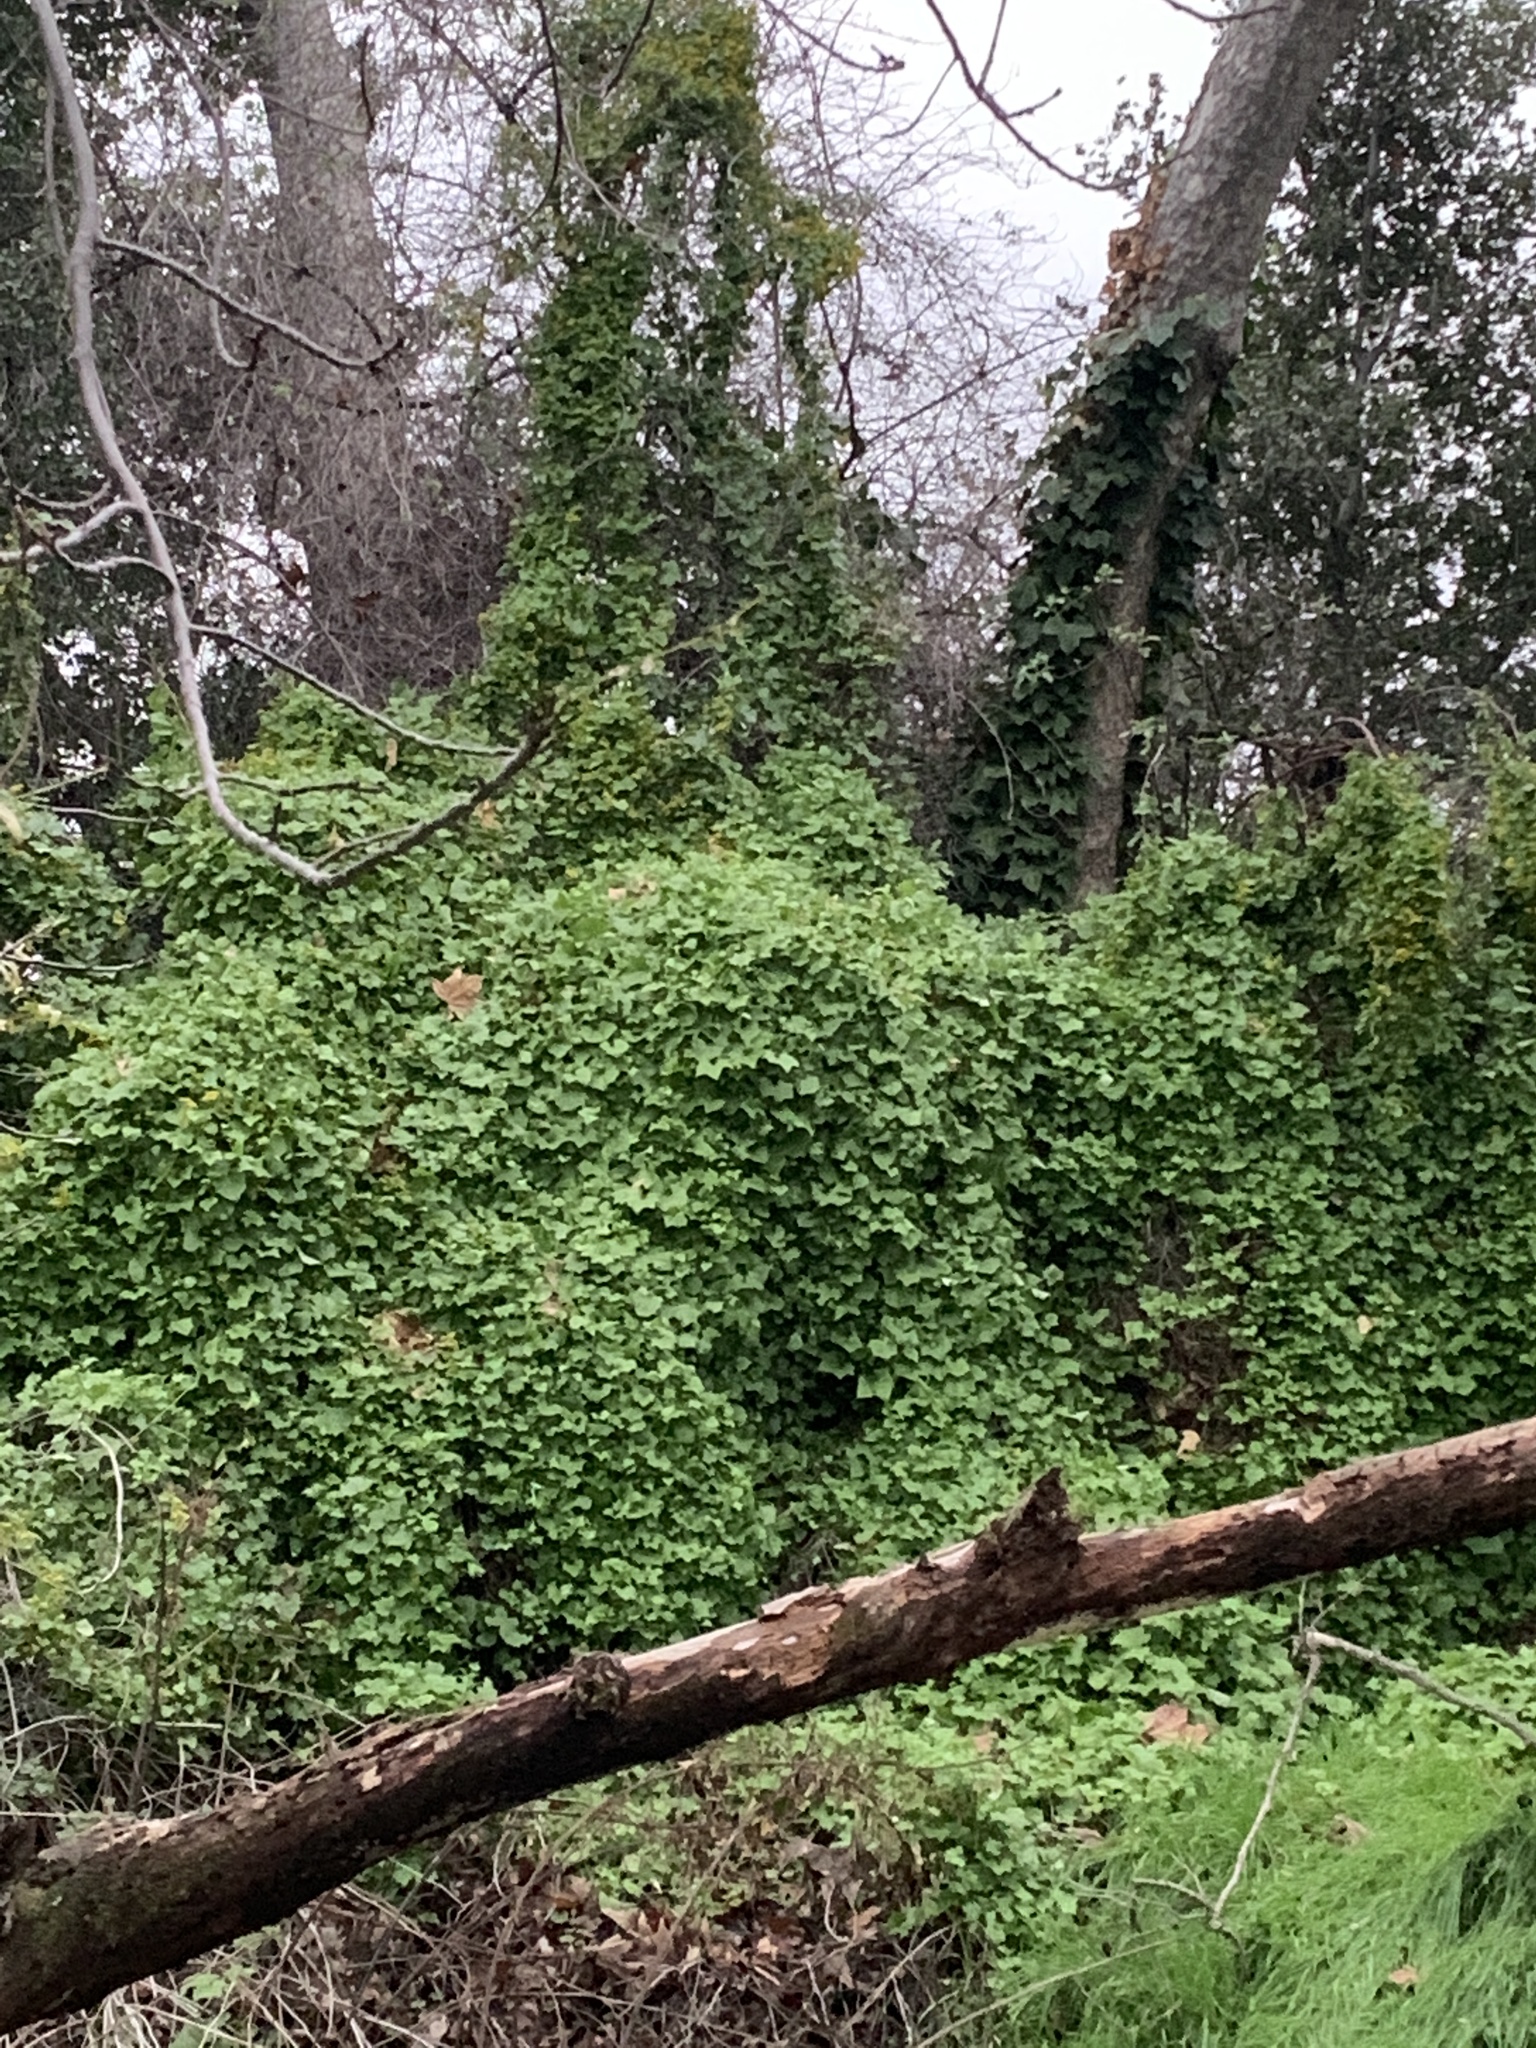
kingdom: Plantae
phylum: Tracheophyta
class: Magnoliopsida
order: Asterales
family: Asteraceae
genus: Delairea
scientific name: Delairea odorata
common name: Cape-ivy
